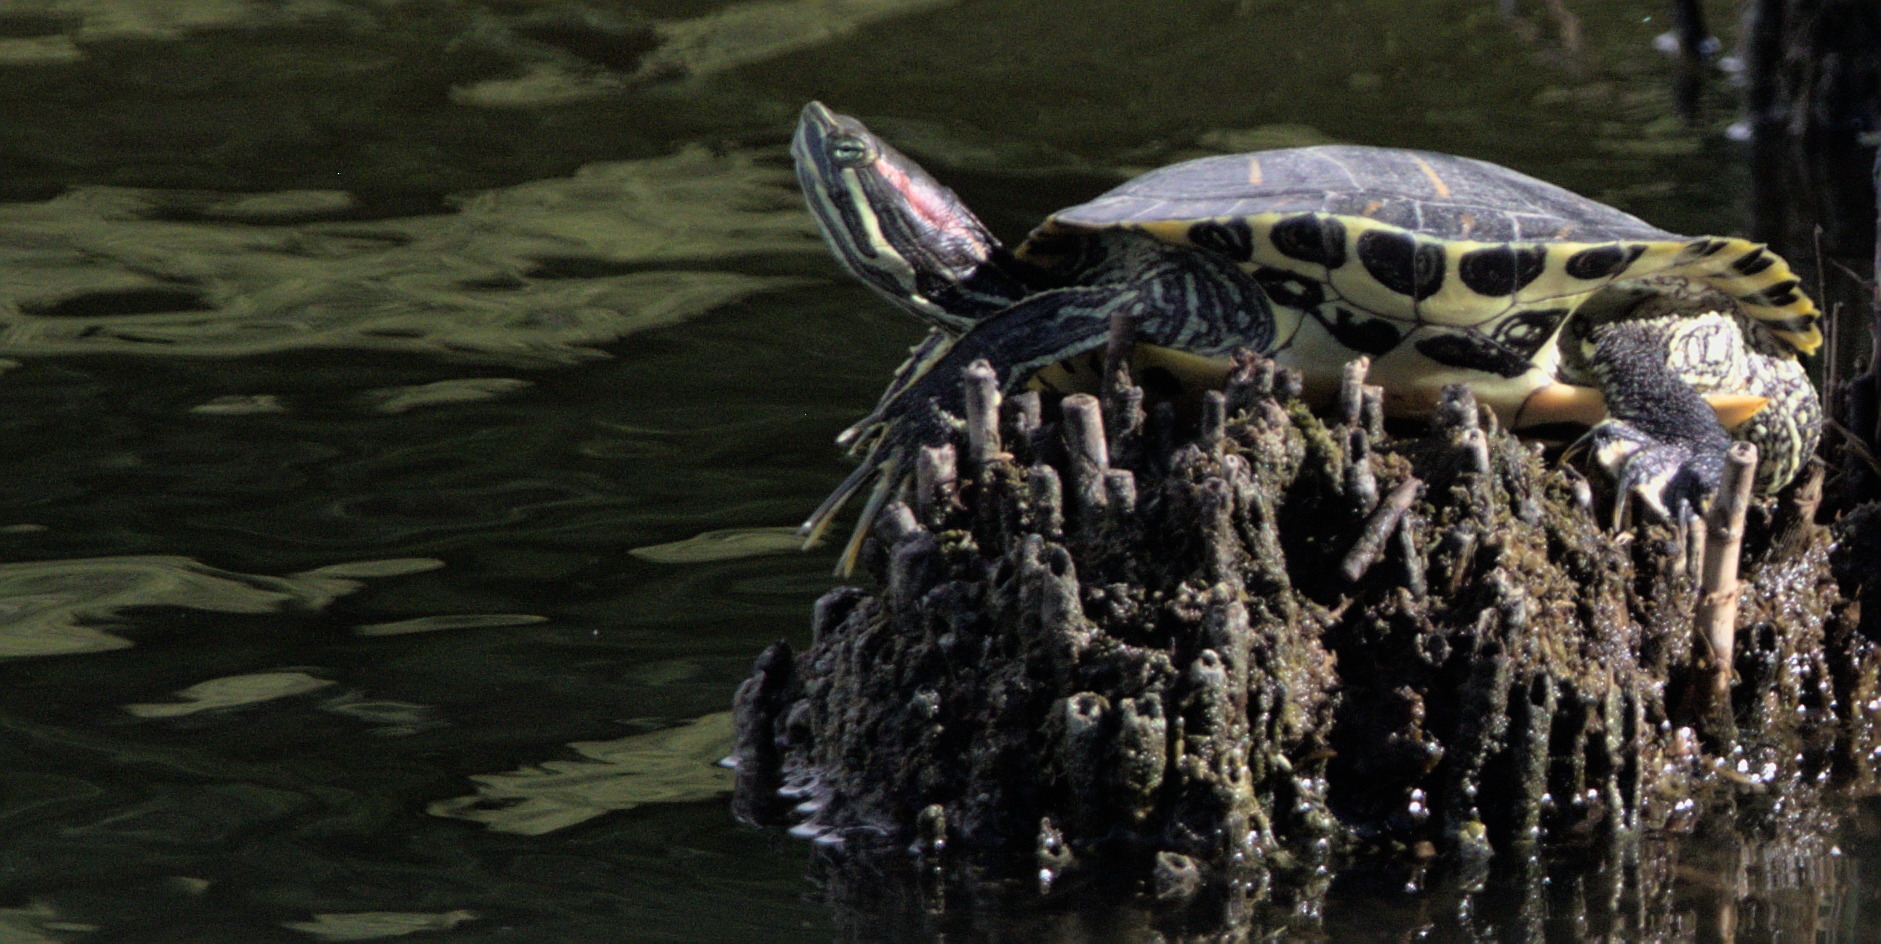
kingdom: Animalia
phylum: Chordata
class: Testudines
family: Emydidae
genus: Trachemys
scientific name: Trachemys scripta
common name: Slider
